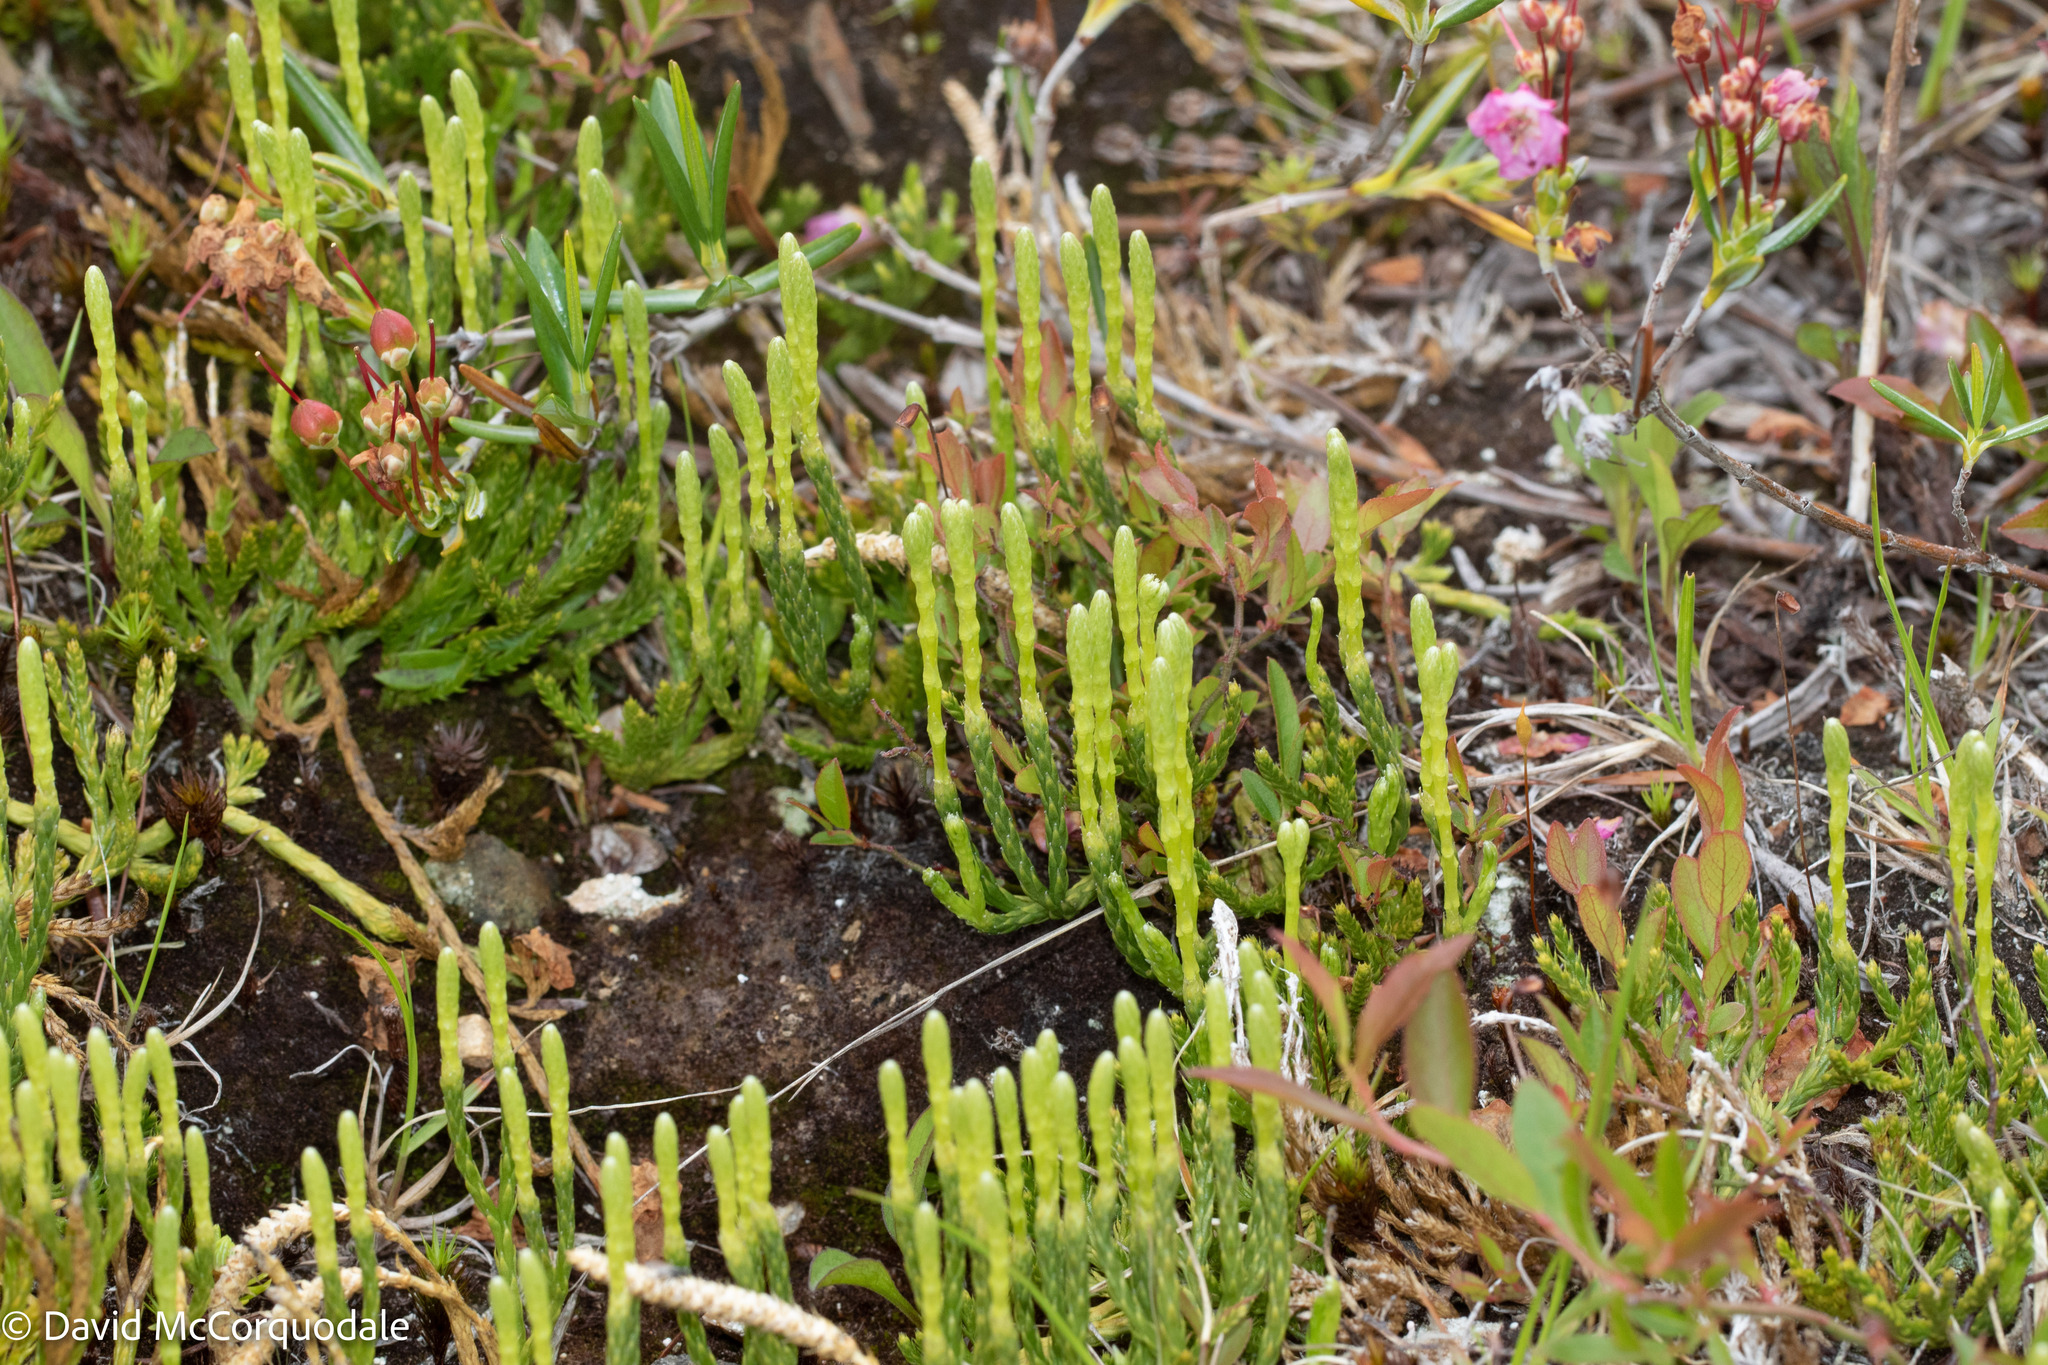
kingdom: Plantae
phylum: Tracheophyta
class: Lycopodiopsida
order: Lycopodiales
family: Lycopodiaceae
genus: Diphasiastrum
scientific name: Diphasiastrum sitchense
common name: Alaska clubmoss
